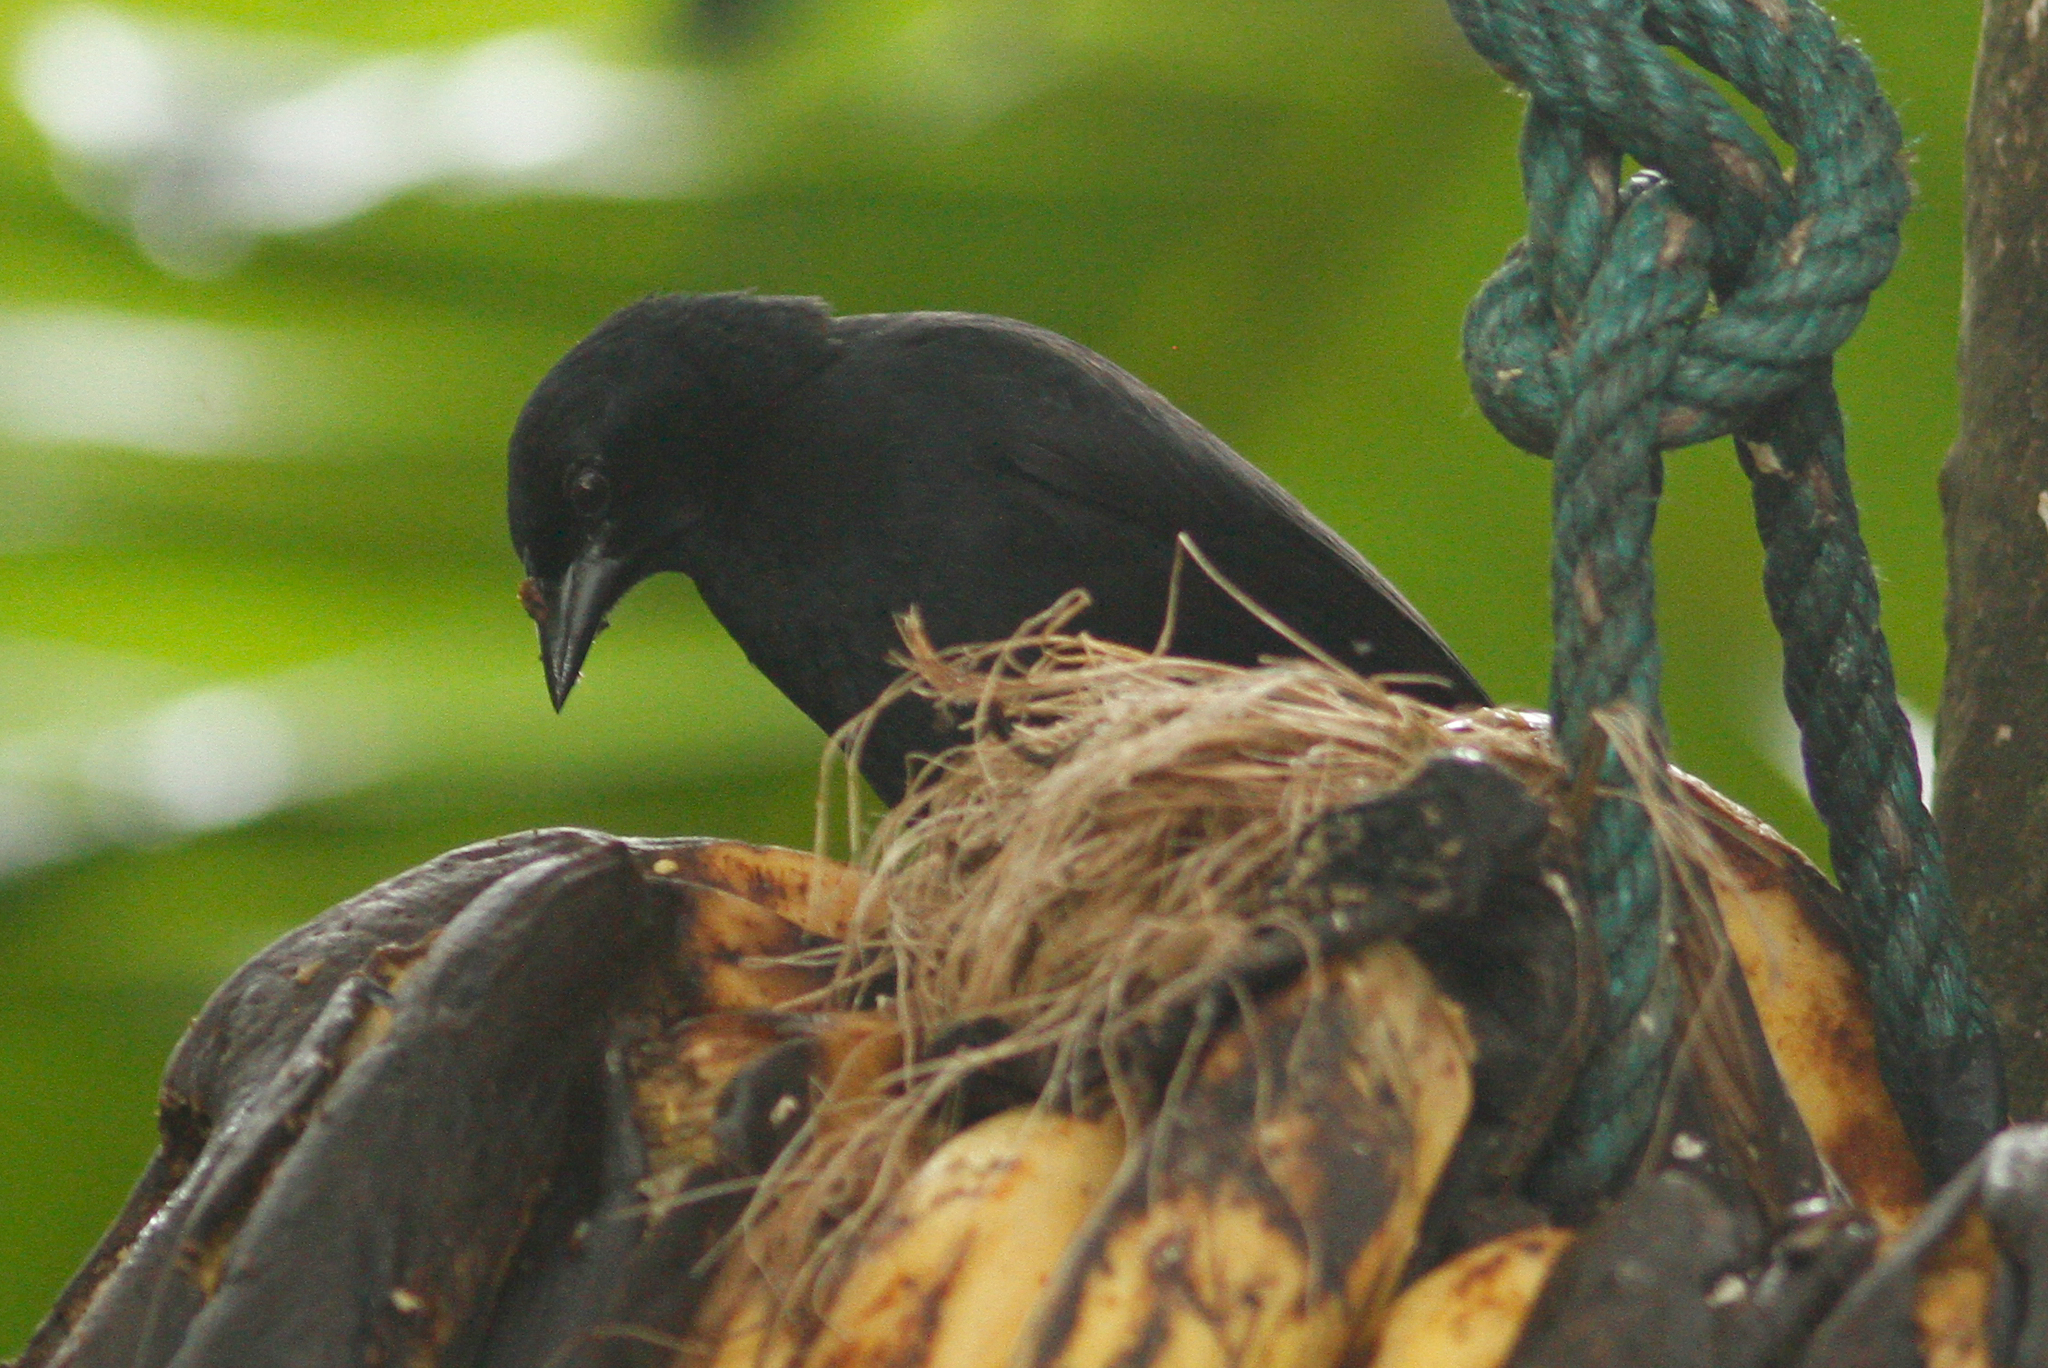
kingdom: Animalia
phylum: Chordata
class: Aves
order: Passeriformes
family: Icteridae
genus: Molothrus
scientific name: Molothrus bonariensis
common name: Shiny cowbird
